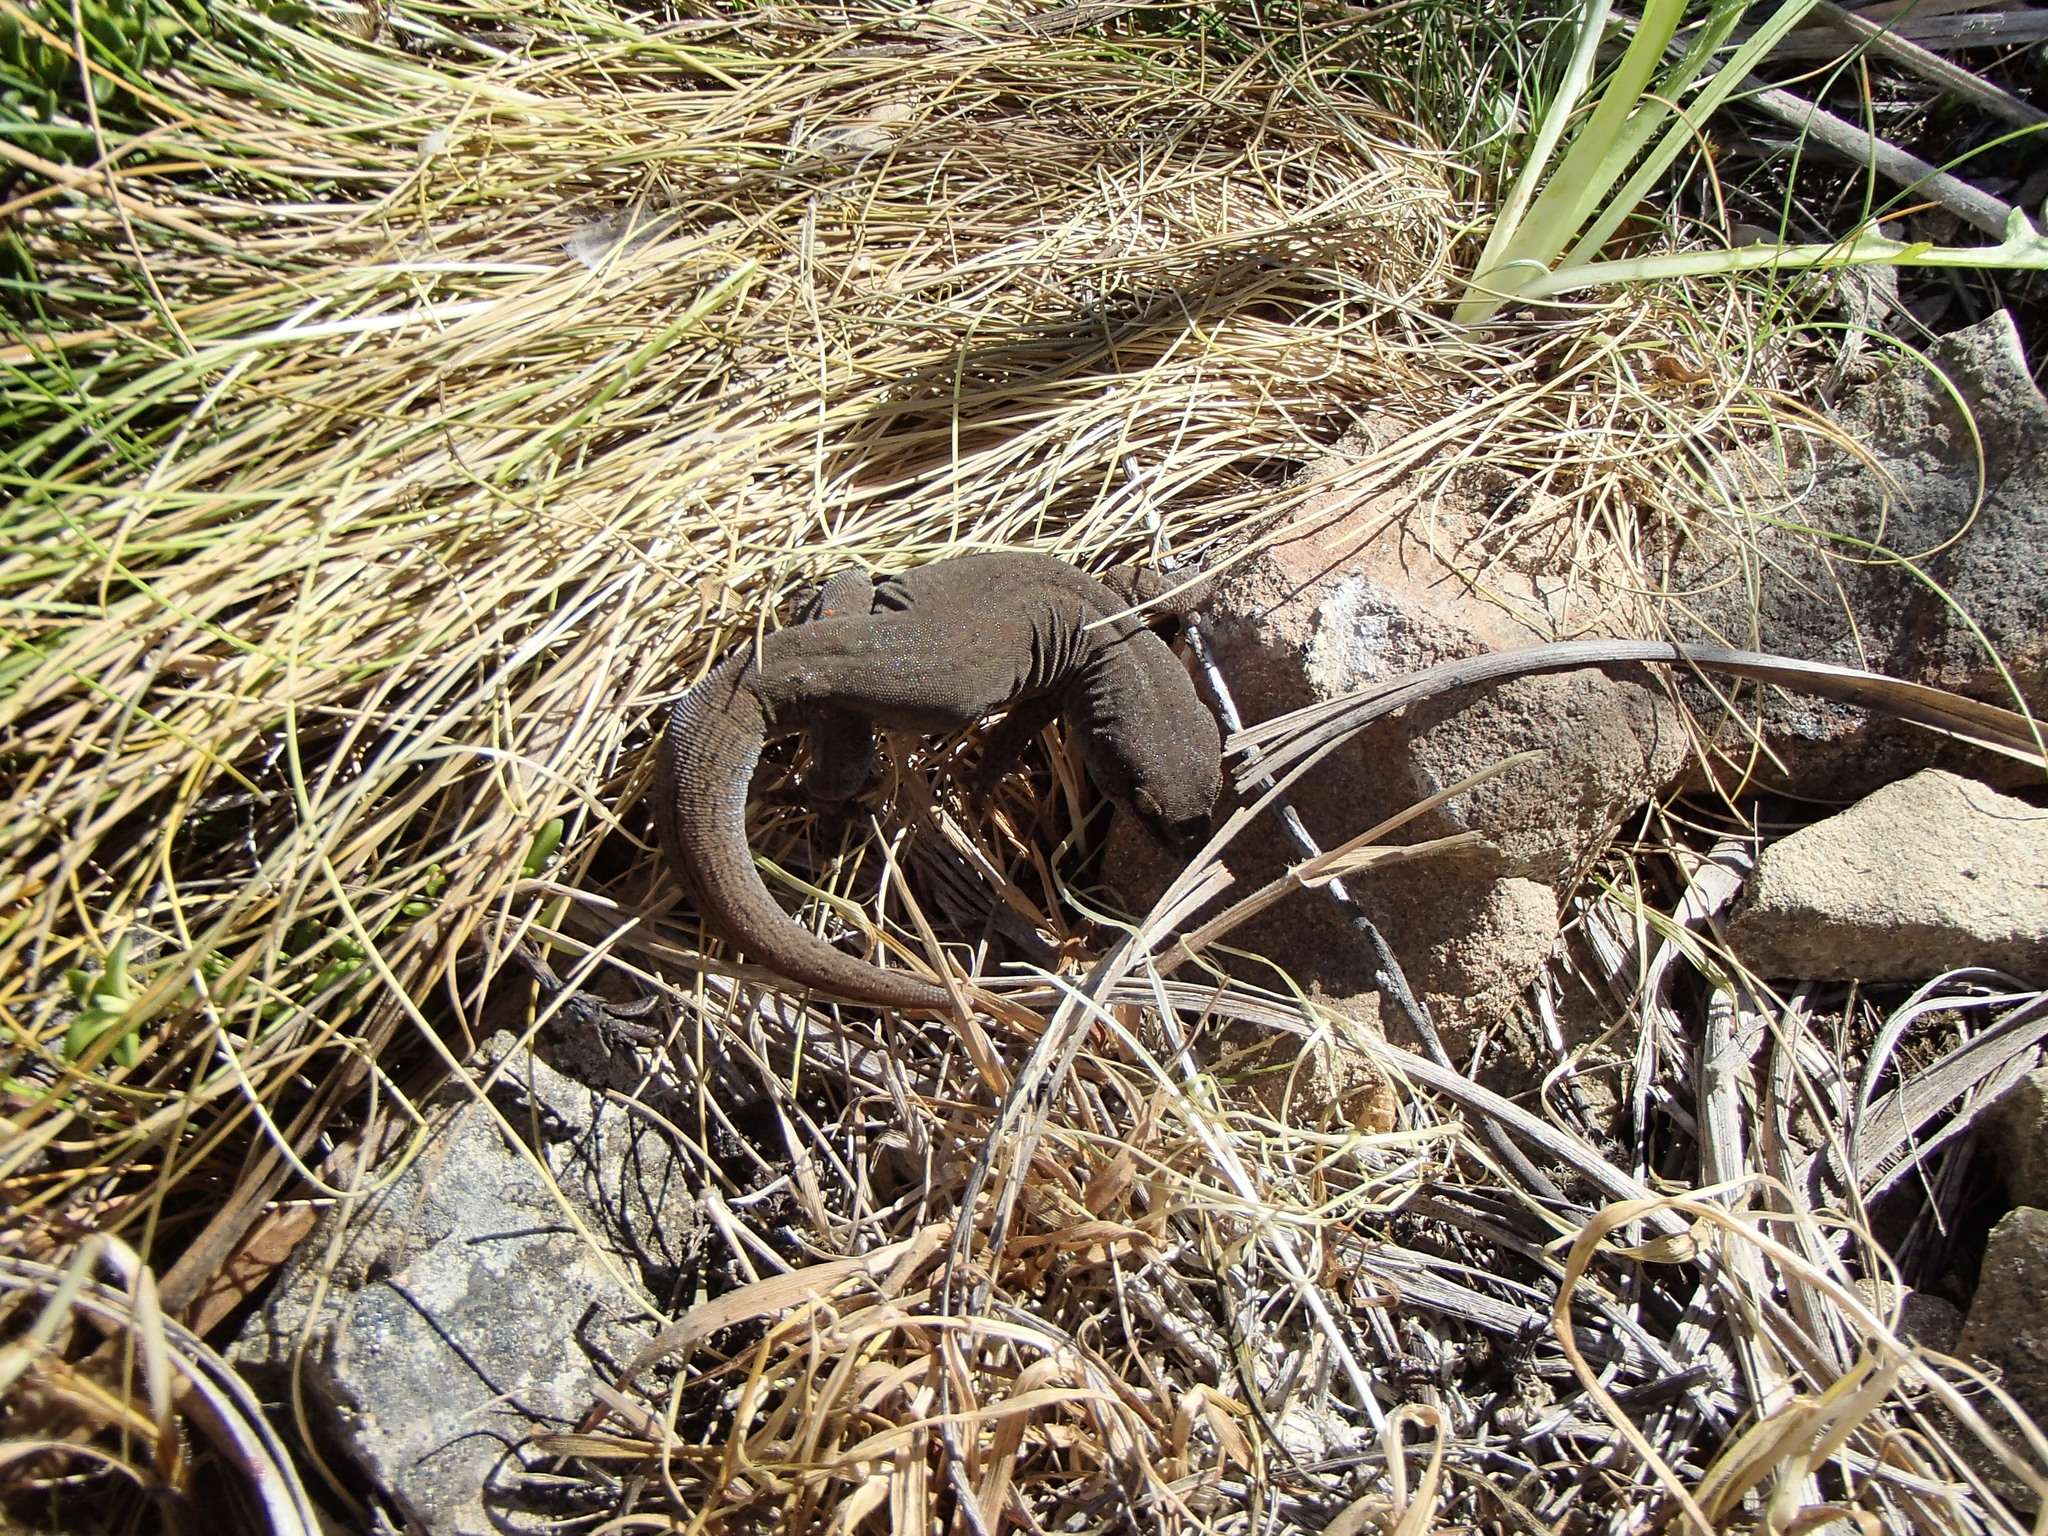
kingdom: Animalia
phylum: Chordata
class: Squamata
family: Diplodactylidae
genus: Woodworthia
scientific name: Woodworthia
